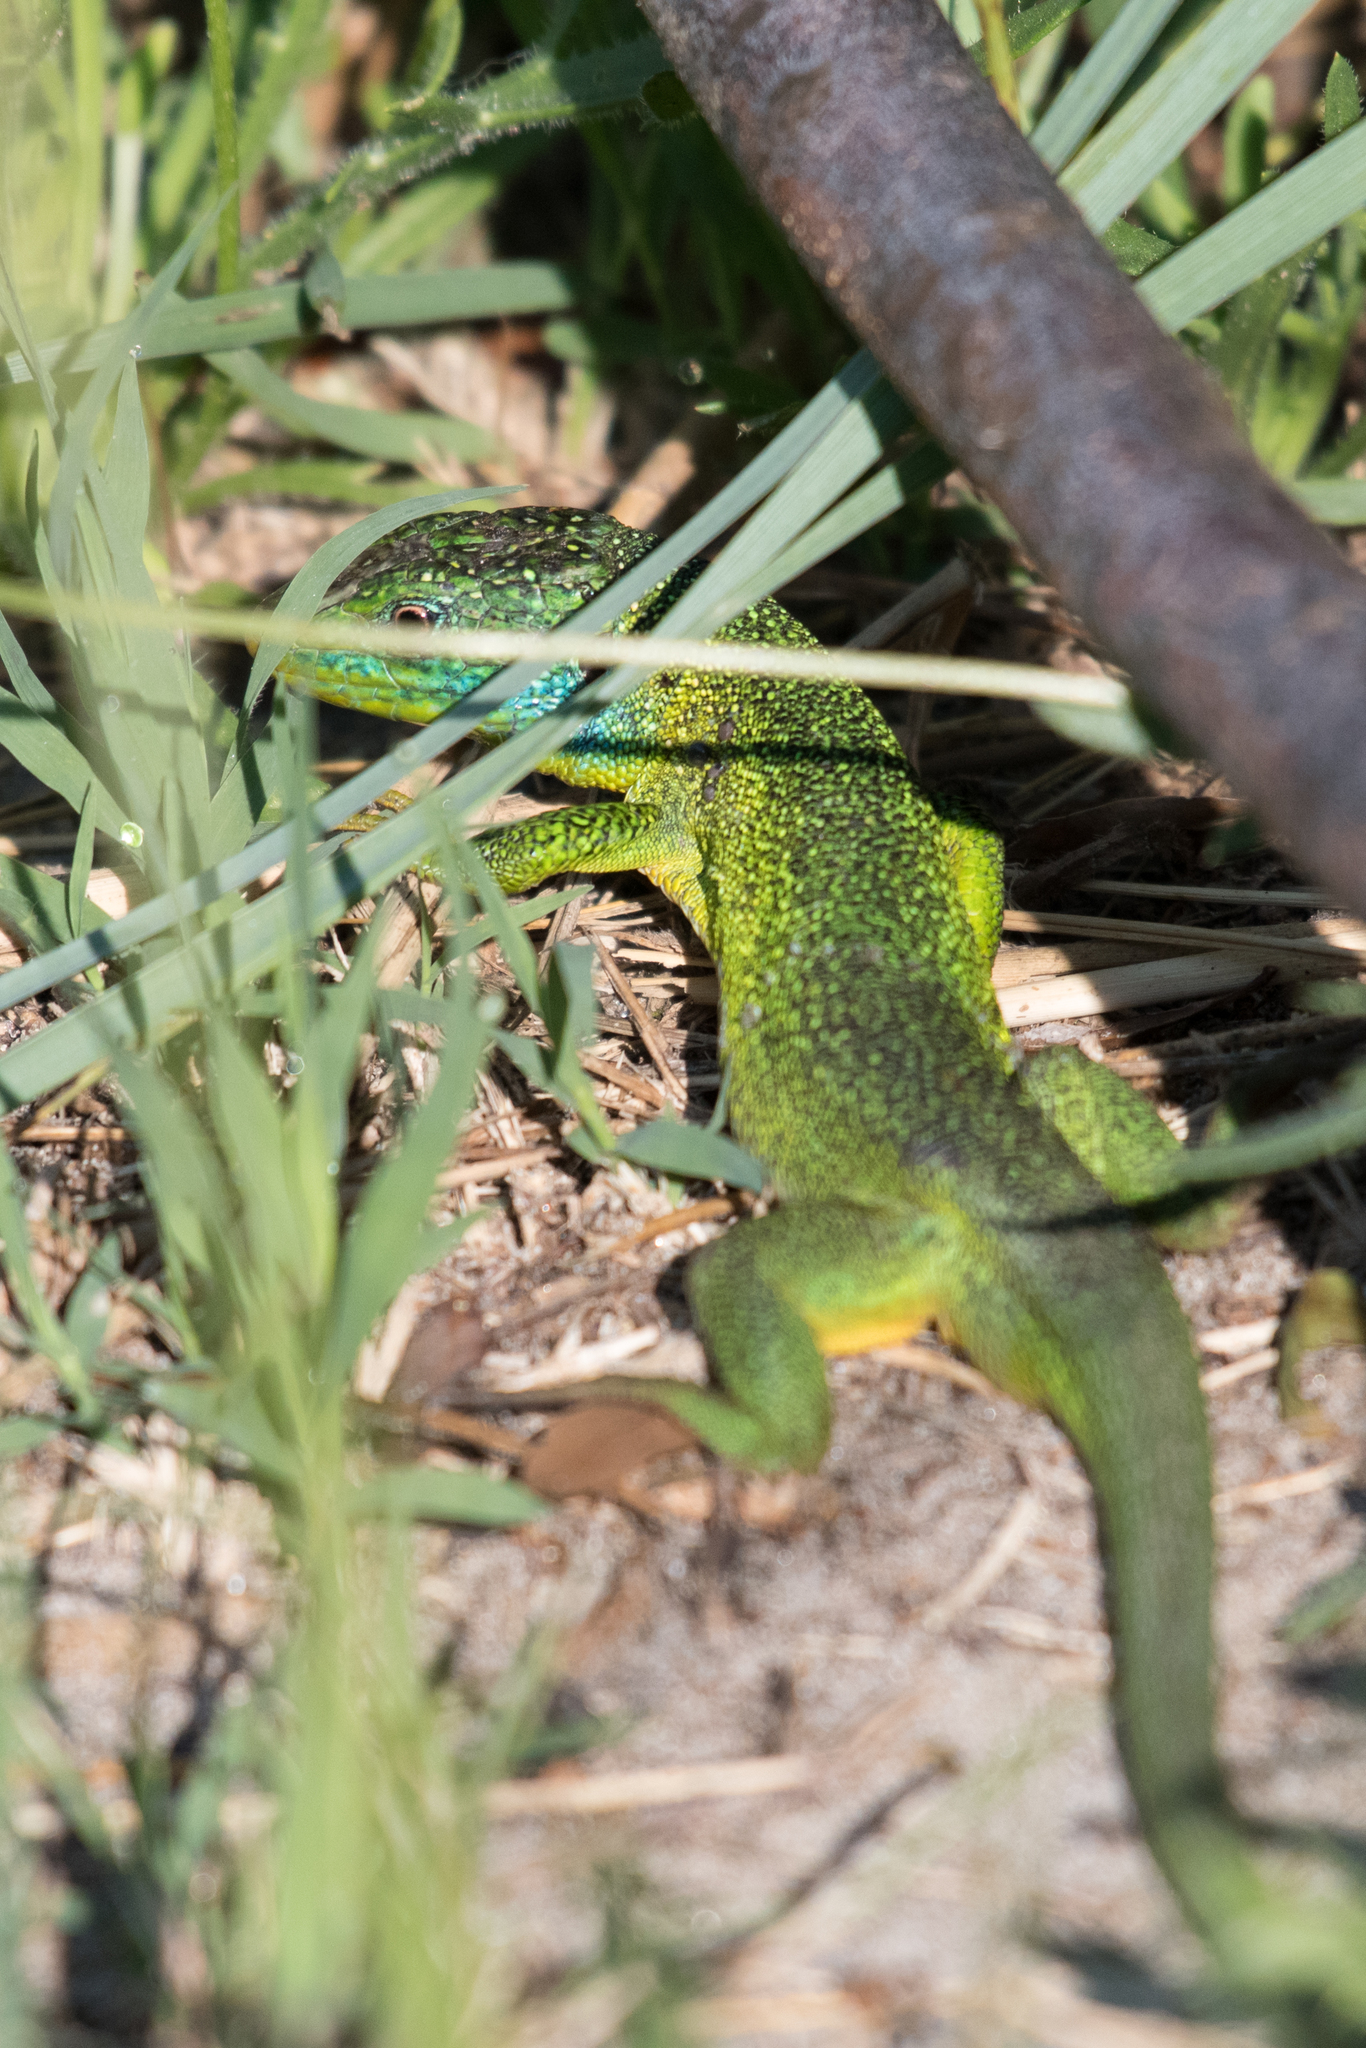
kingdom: Animalia
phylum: Chordata
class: Squamata
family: Lacertidae
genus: Lacerta
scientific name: Lacerta bilineata
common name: Western green lizard
